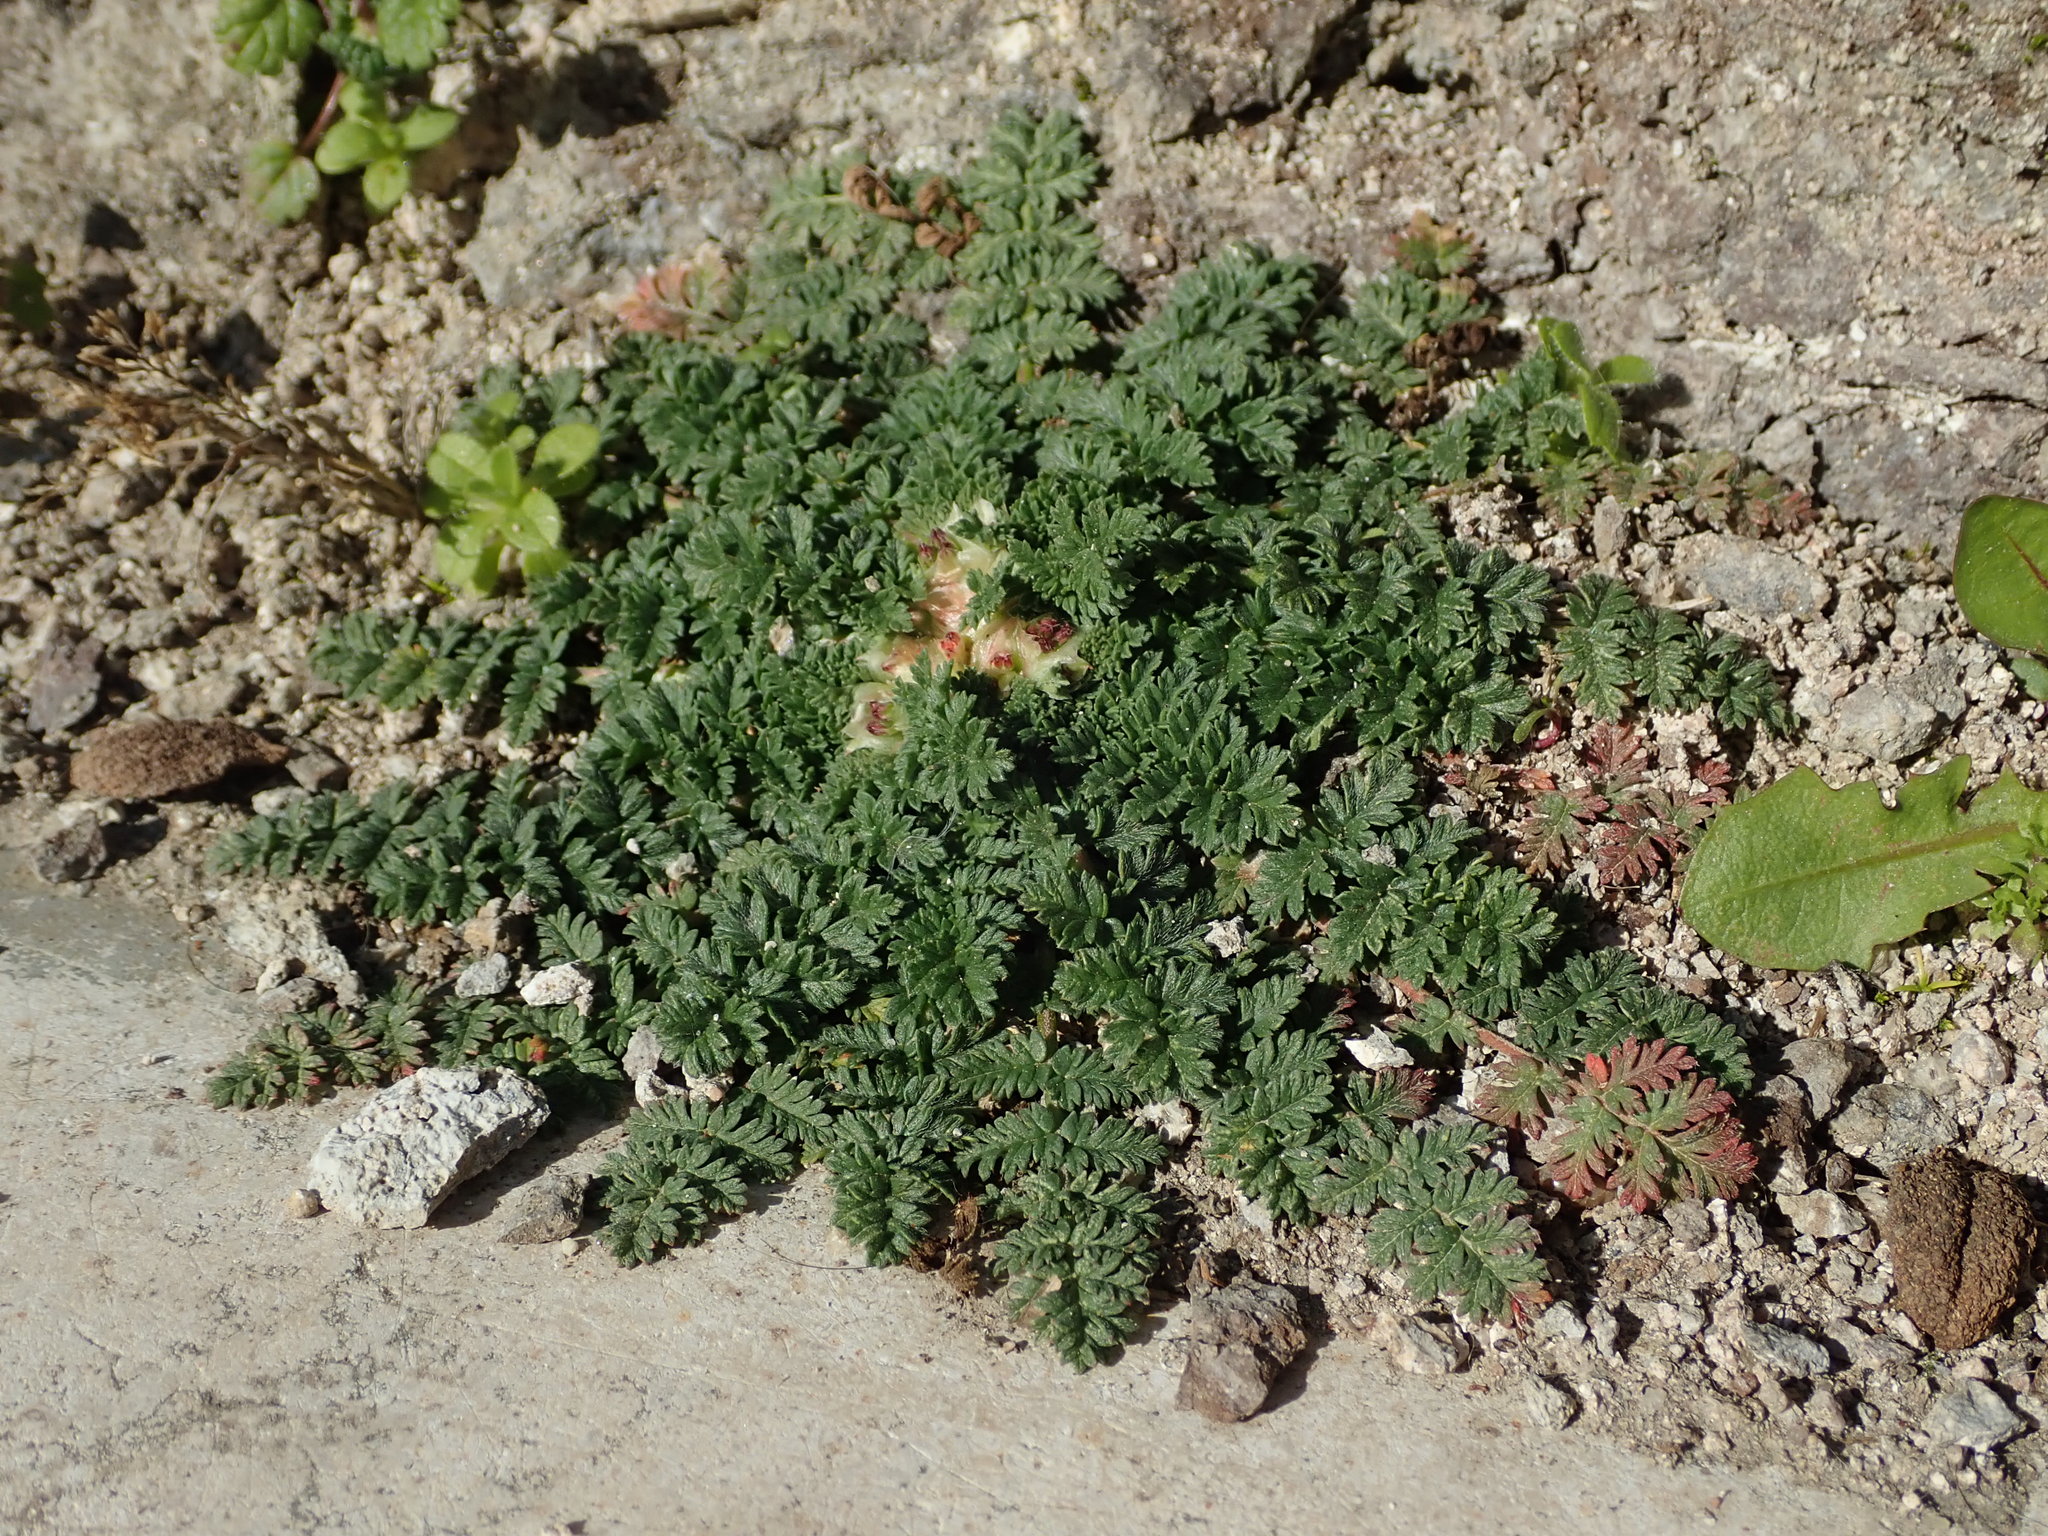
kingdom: Plantae
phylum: Tracheophyta
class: Magnoliopsida
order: Geraniales
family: Geraniaceae
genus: Erodium
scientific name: Erodium cicutarium
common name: Common stork's-bill
